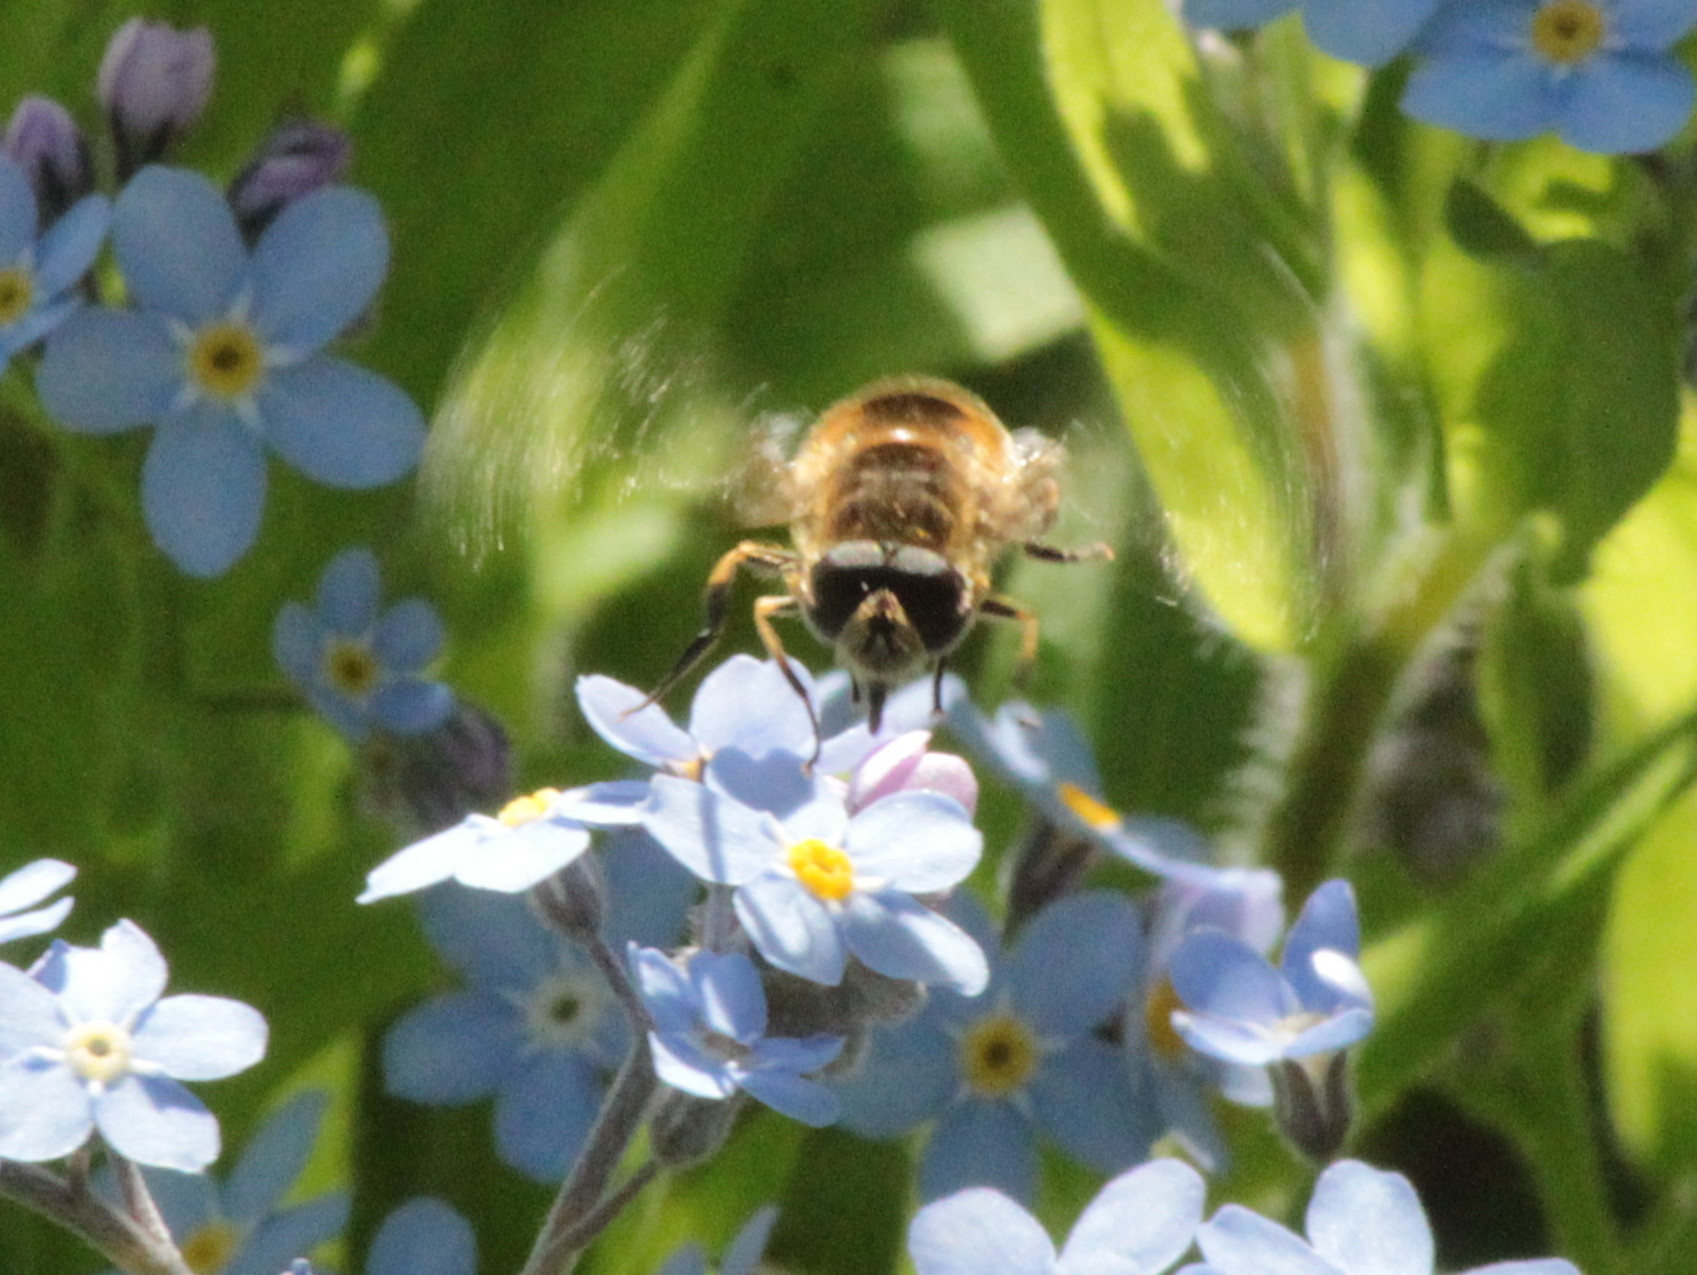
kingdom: Animalia
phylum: Arthropoda
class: Insecta
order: Diptera
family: Syrphidae
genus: Eristalis
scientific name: Eristalis arbustorum
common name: Hover fly
